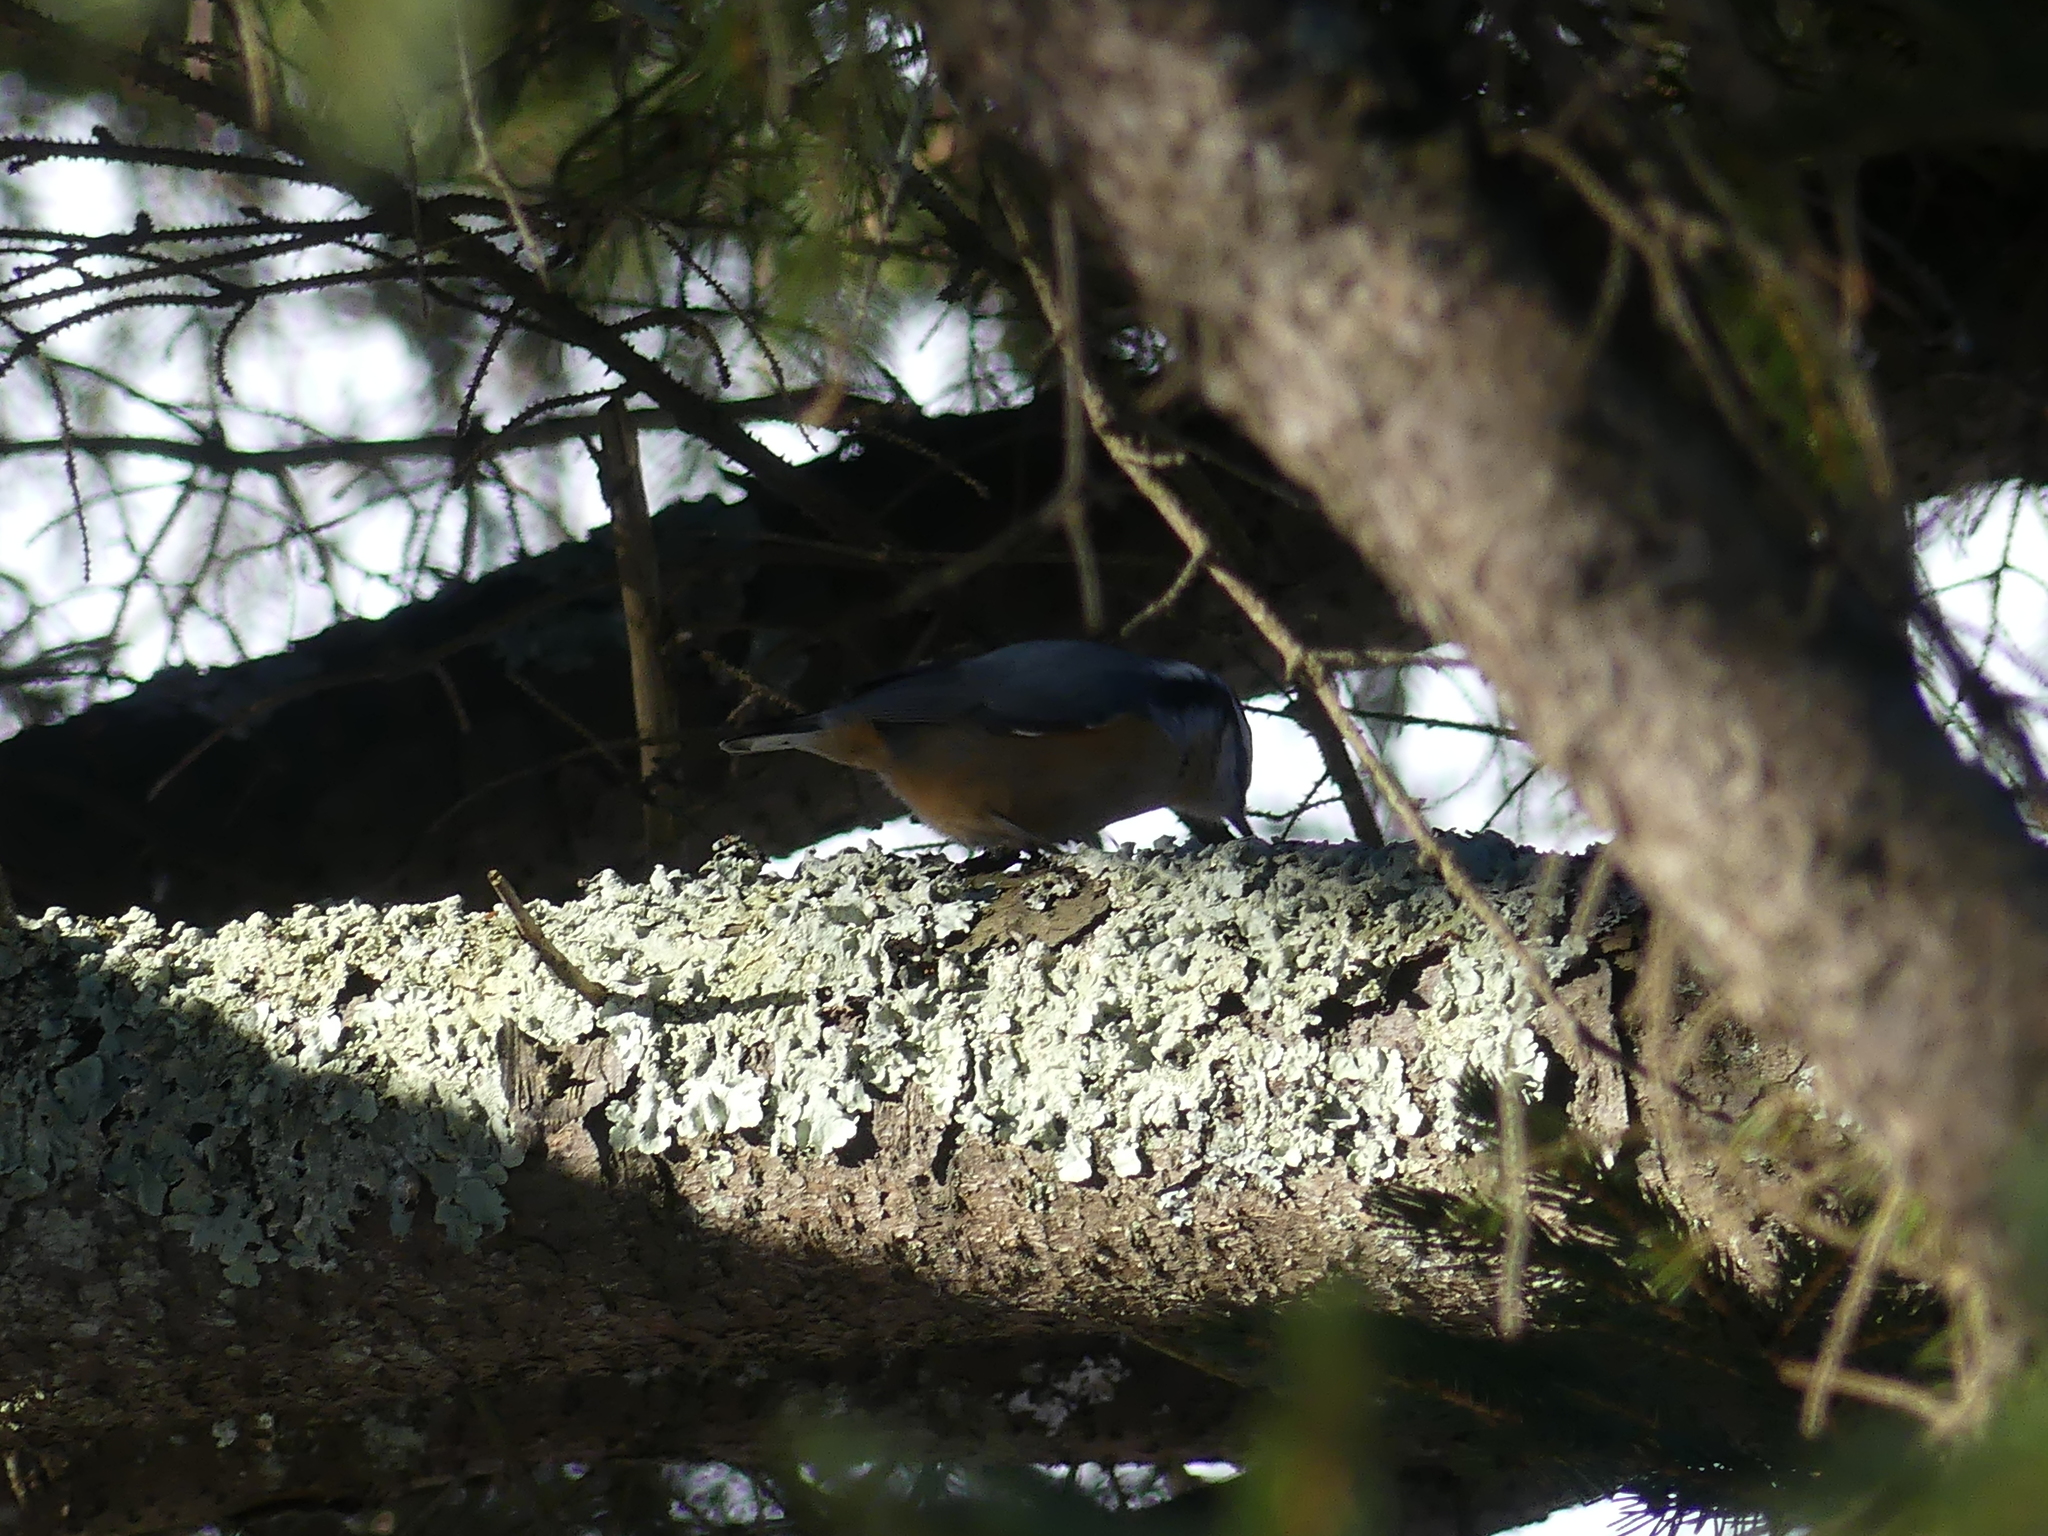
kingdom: Animalia
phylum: Chordata
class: Aves
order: Passeriformes
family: Sittidae
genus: Sitta
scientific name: Sitta canadensis
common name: Red-breasted nuthatch
